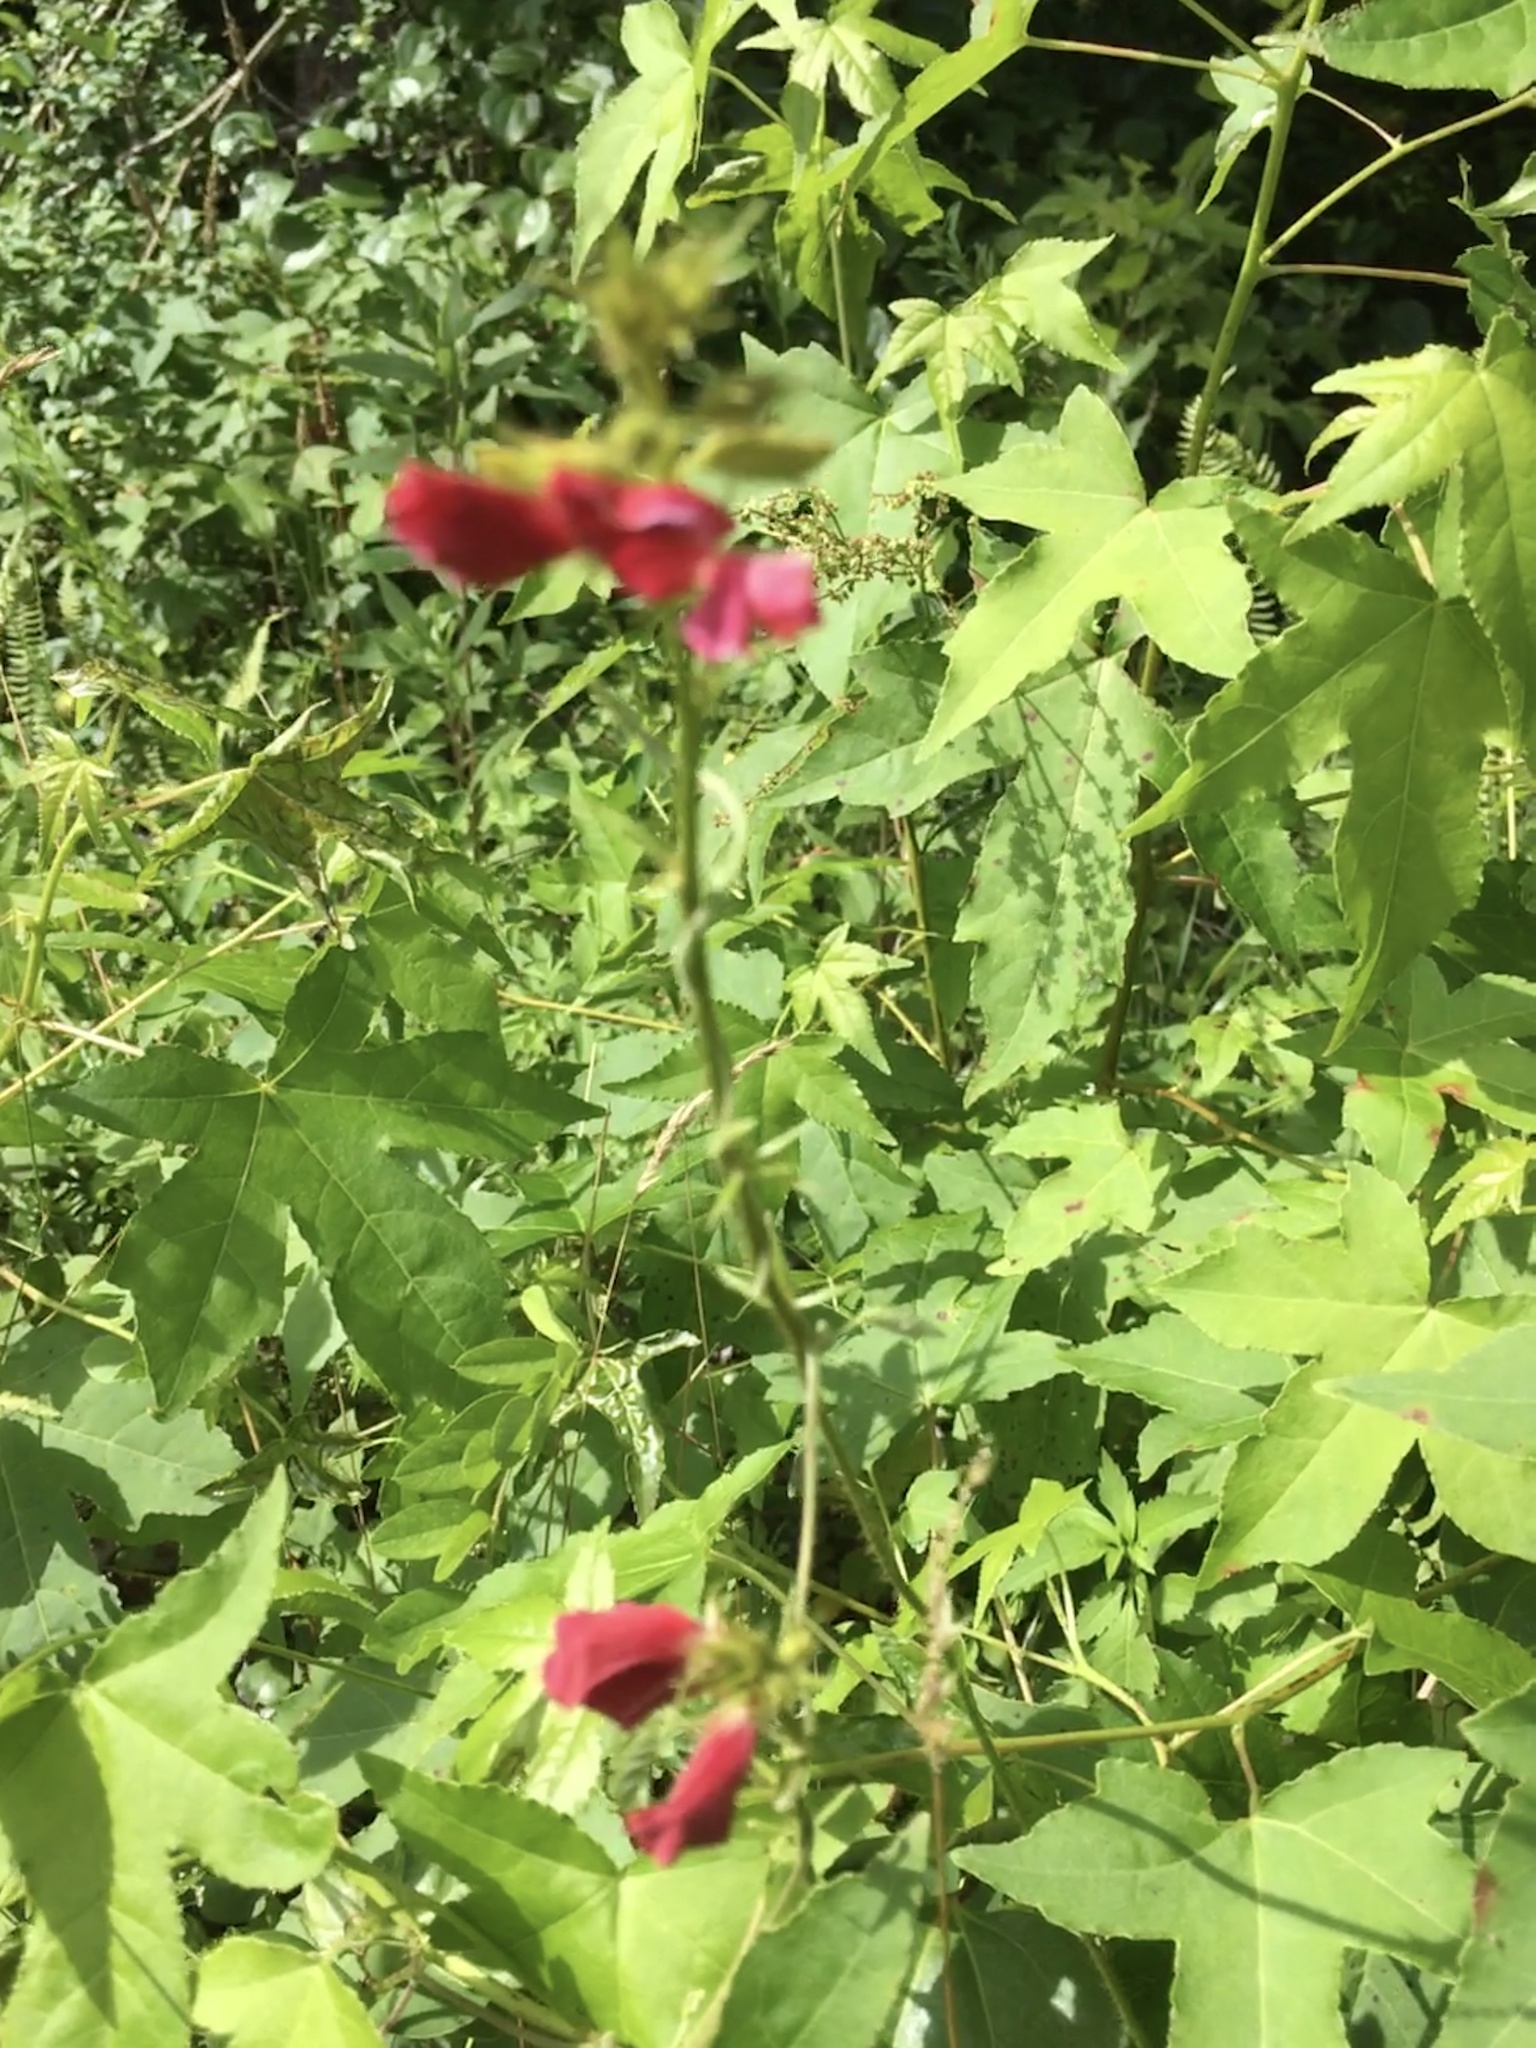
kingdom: Plantae
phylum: Tracheophyta
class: Magnoliopsida
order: Fabales
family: Fabaceae
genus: Tephrosia
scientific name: Tephrosia spicata
